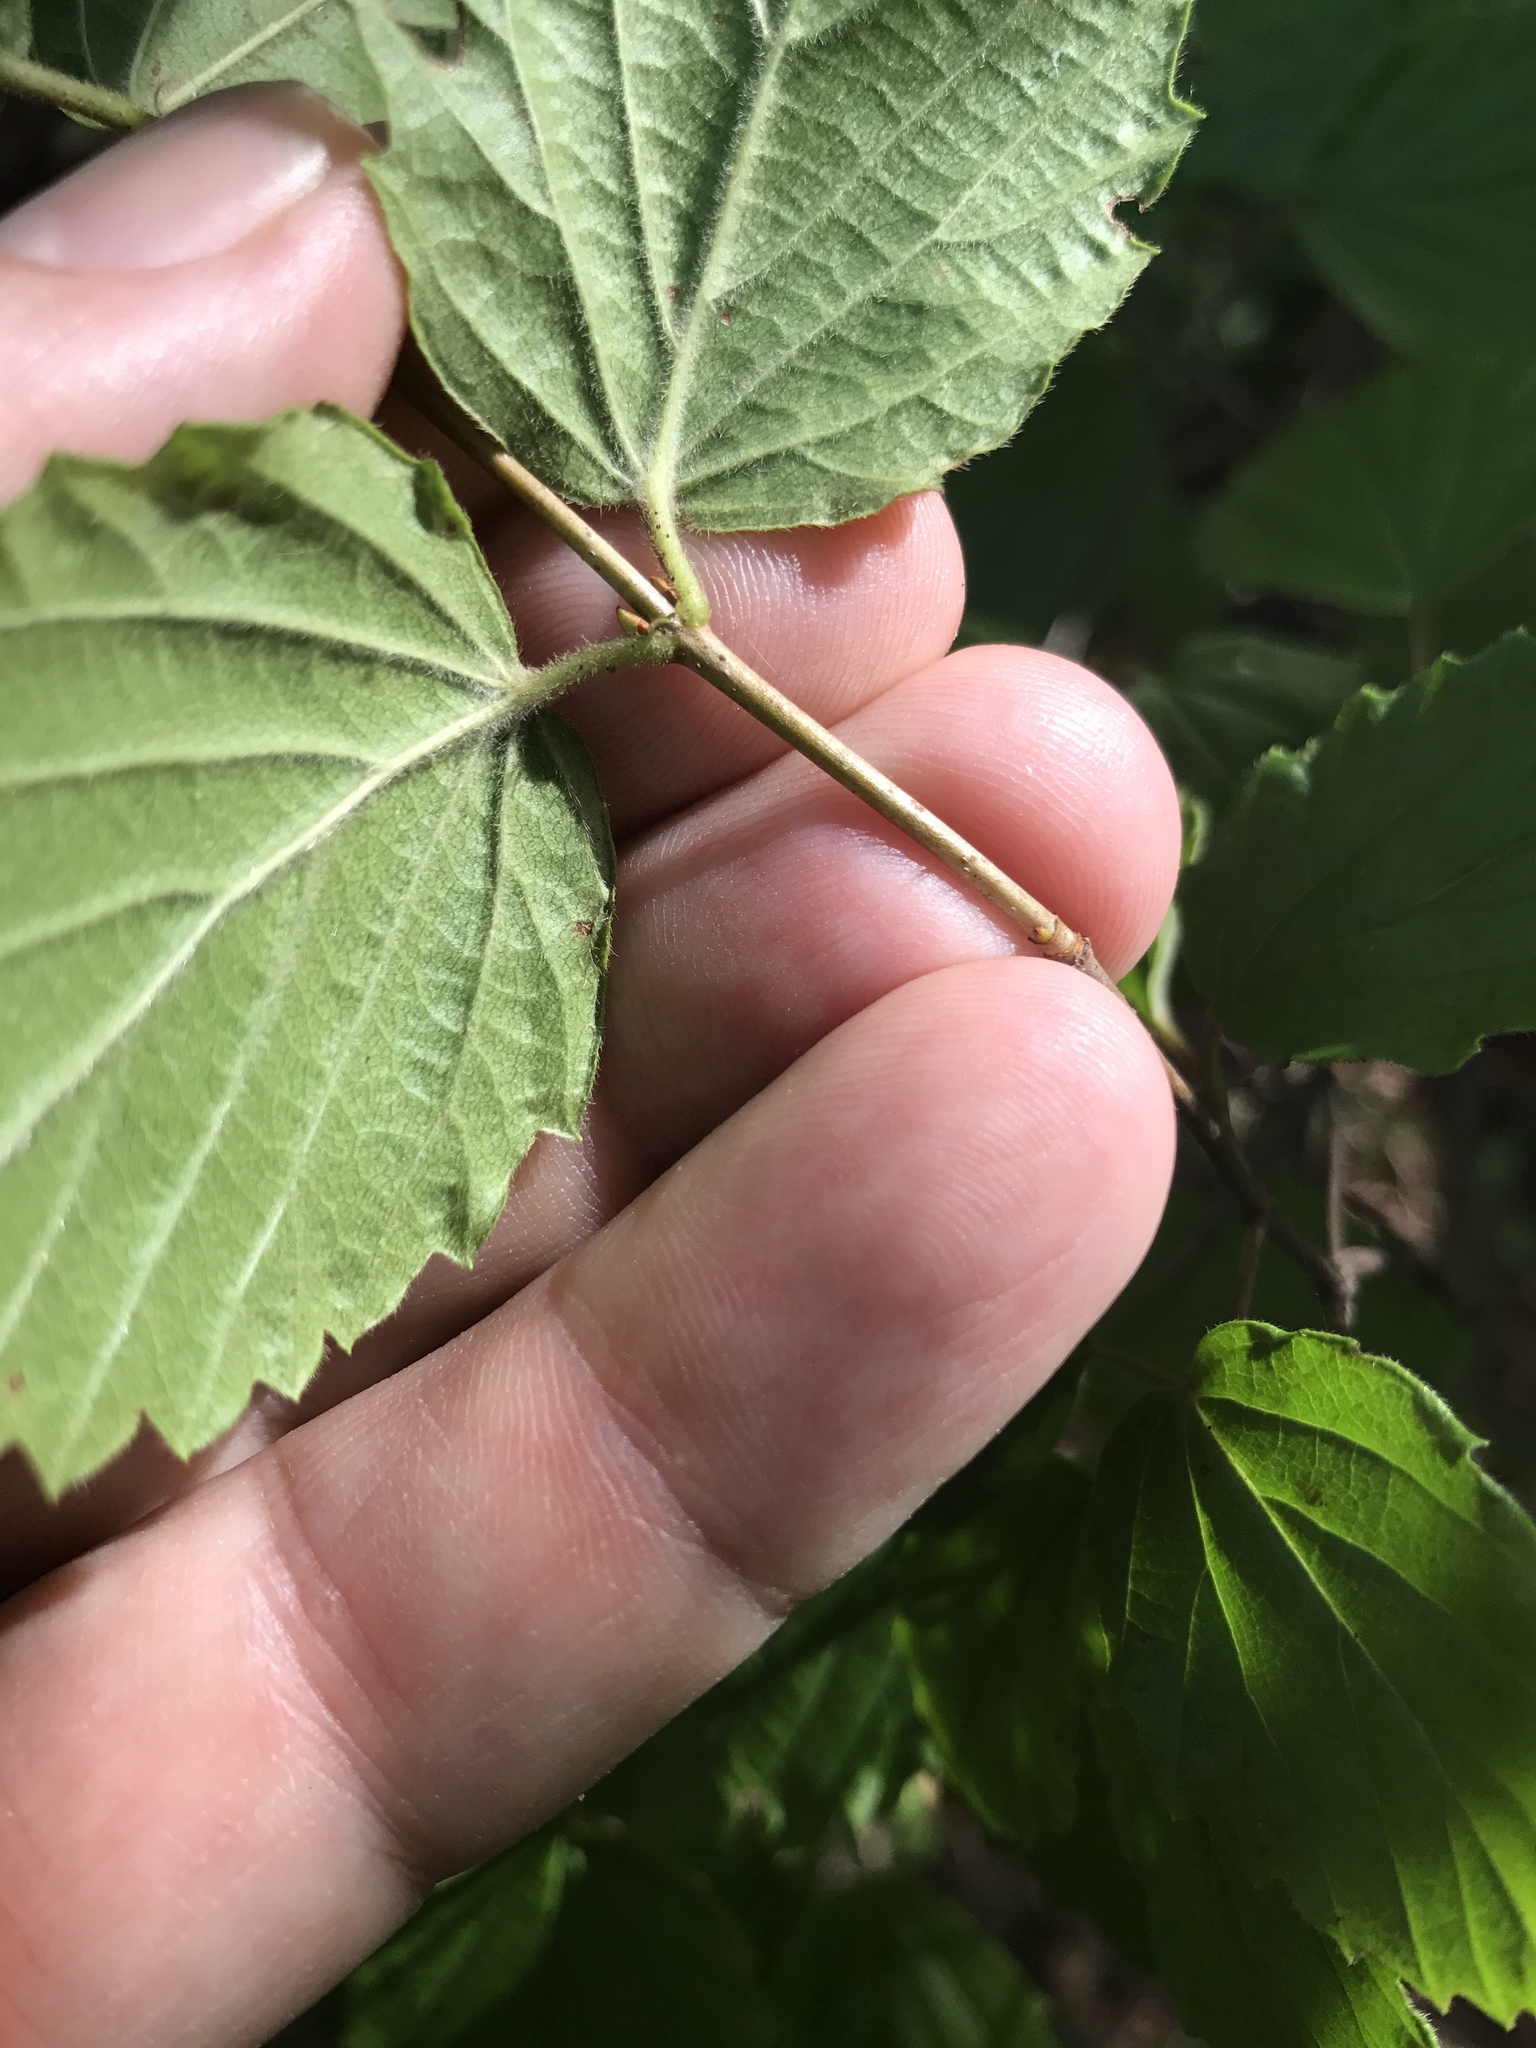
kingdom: Plantae
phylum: Tracheophyta
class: Magnoliopsida
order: Dipsacales
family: Viburnaceae
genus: Viburnum
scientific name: Viburnum rafinesqueanum
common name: Downy arrow-wood
